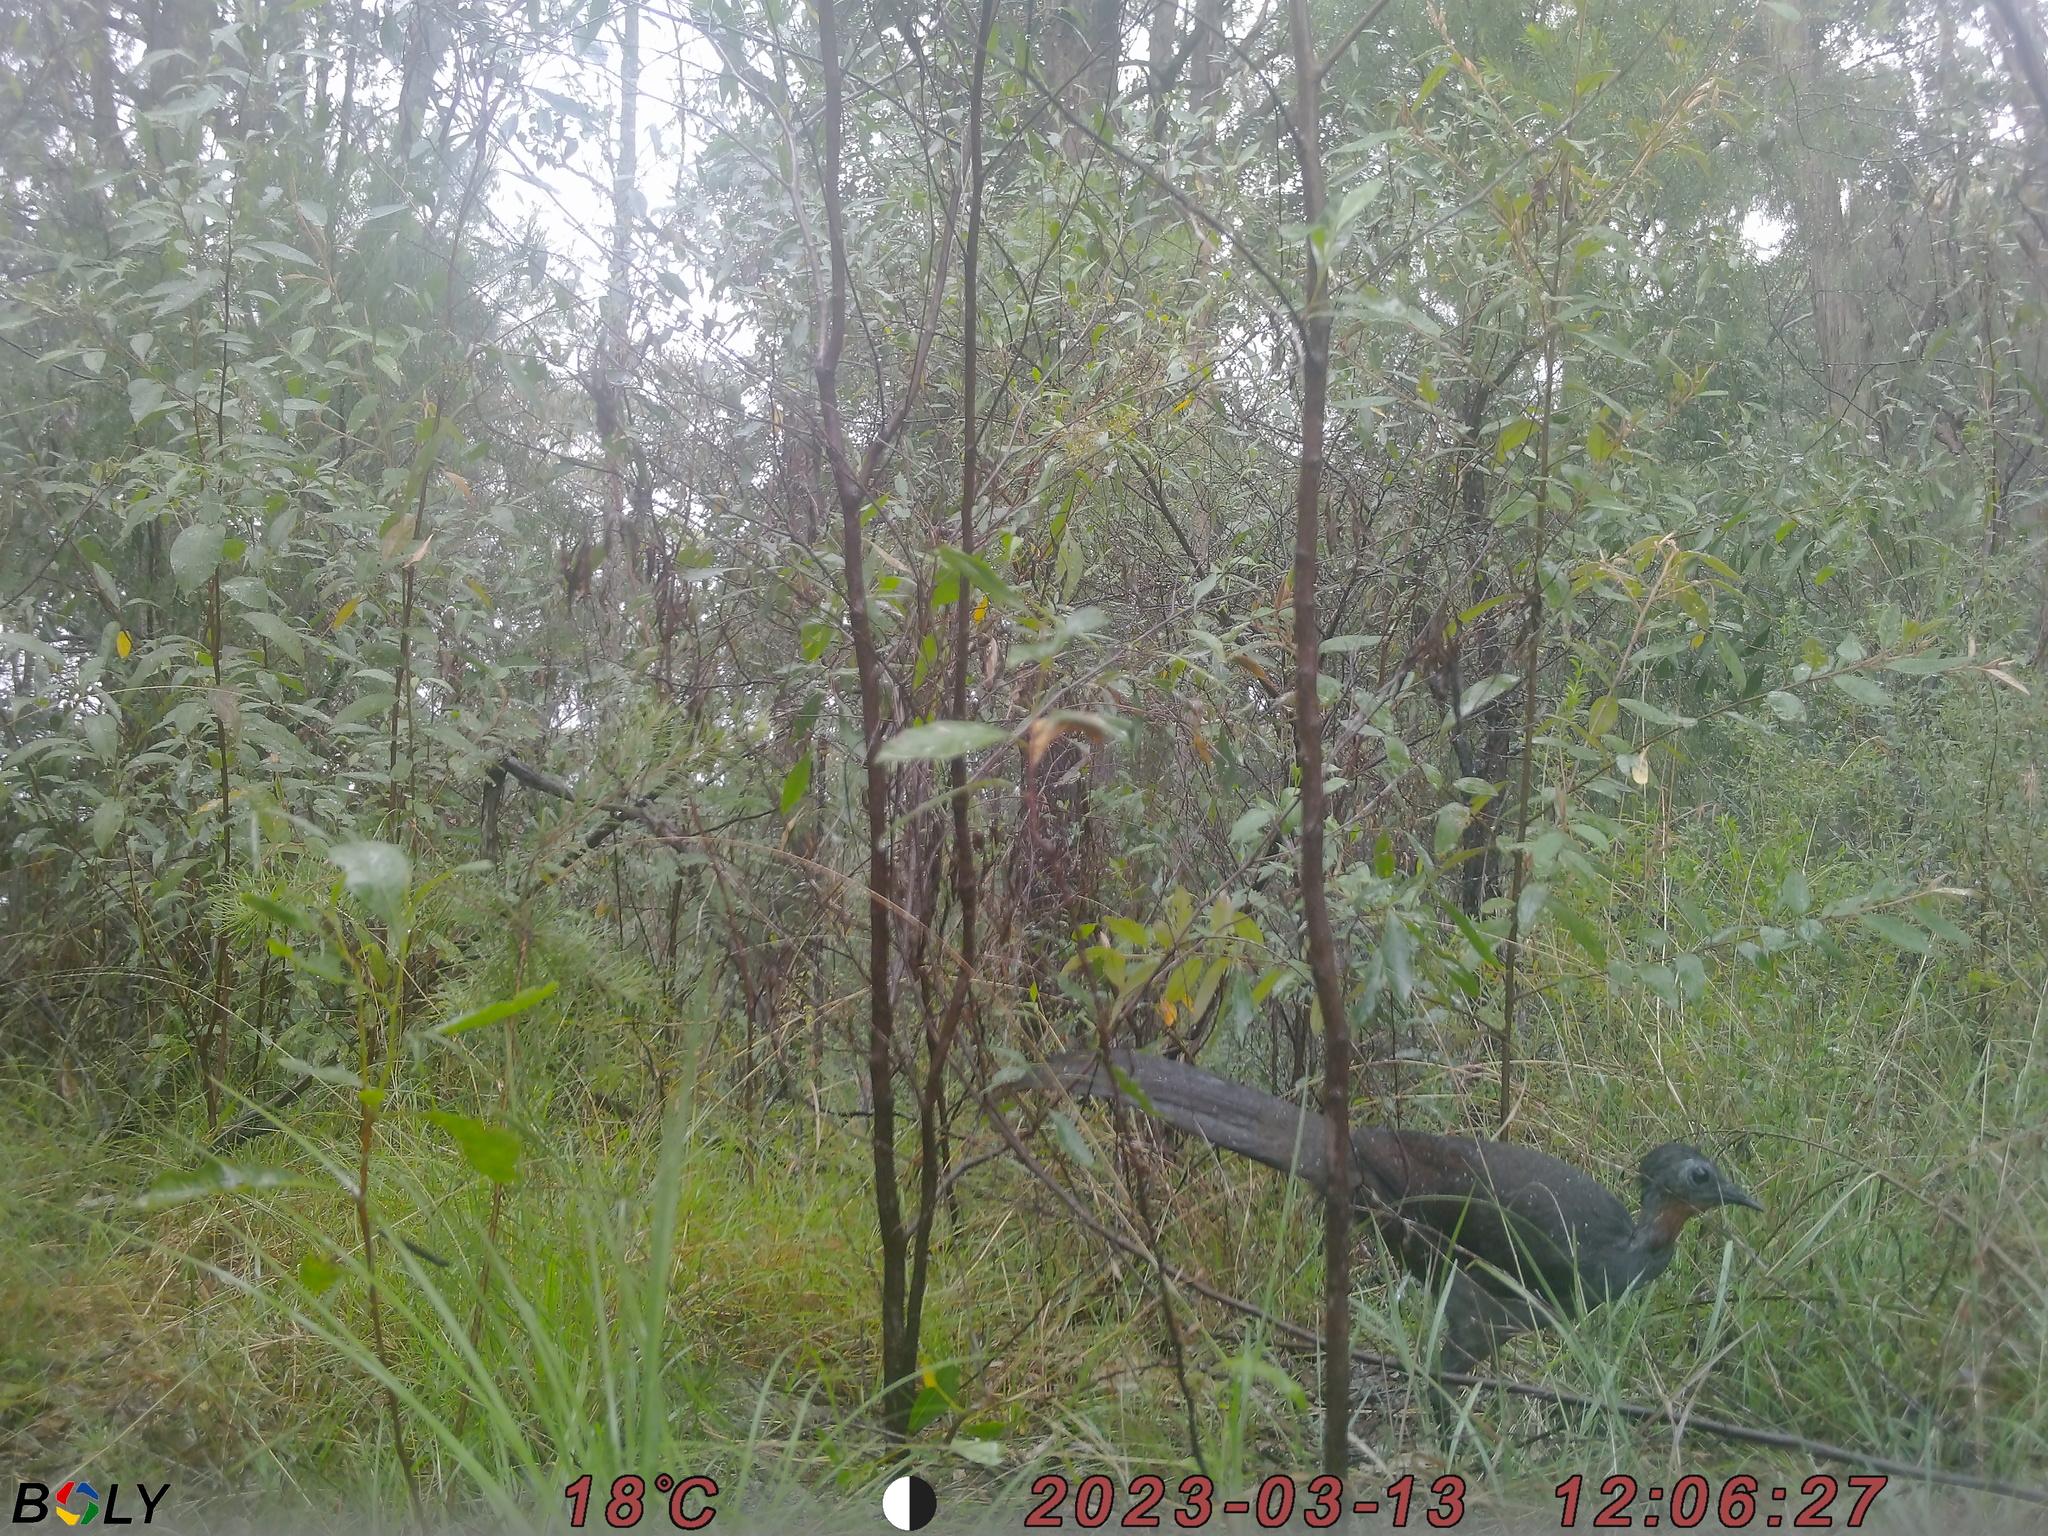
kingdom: Animalia
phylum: Chordata
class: Aves
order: Passeriformes
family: Menuridae
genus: Menura
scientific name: Menura novaehollandiae
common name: Superb lyrebird
